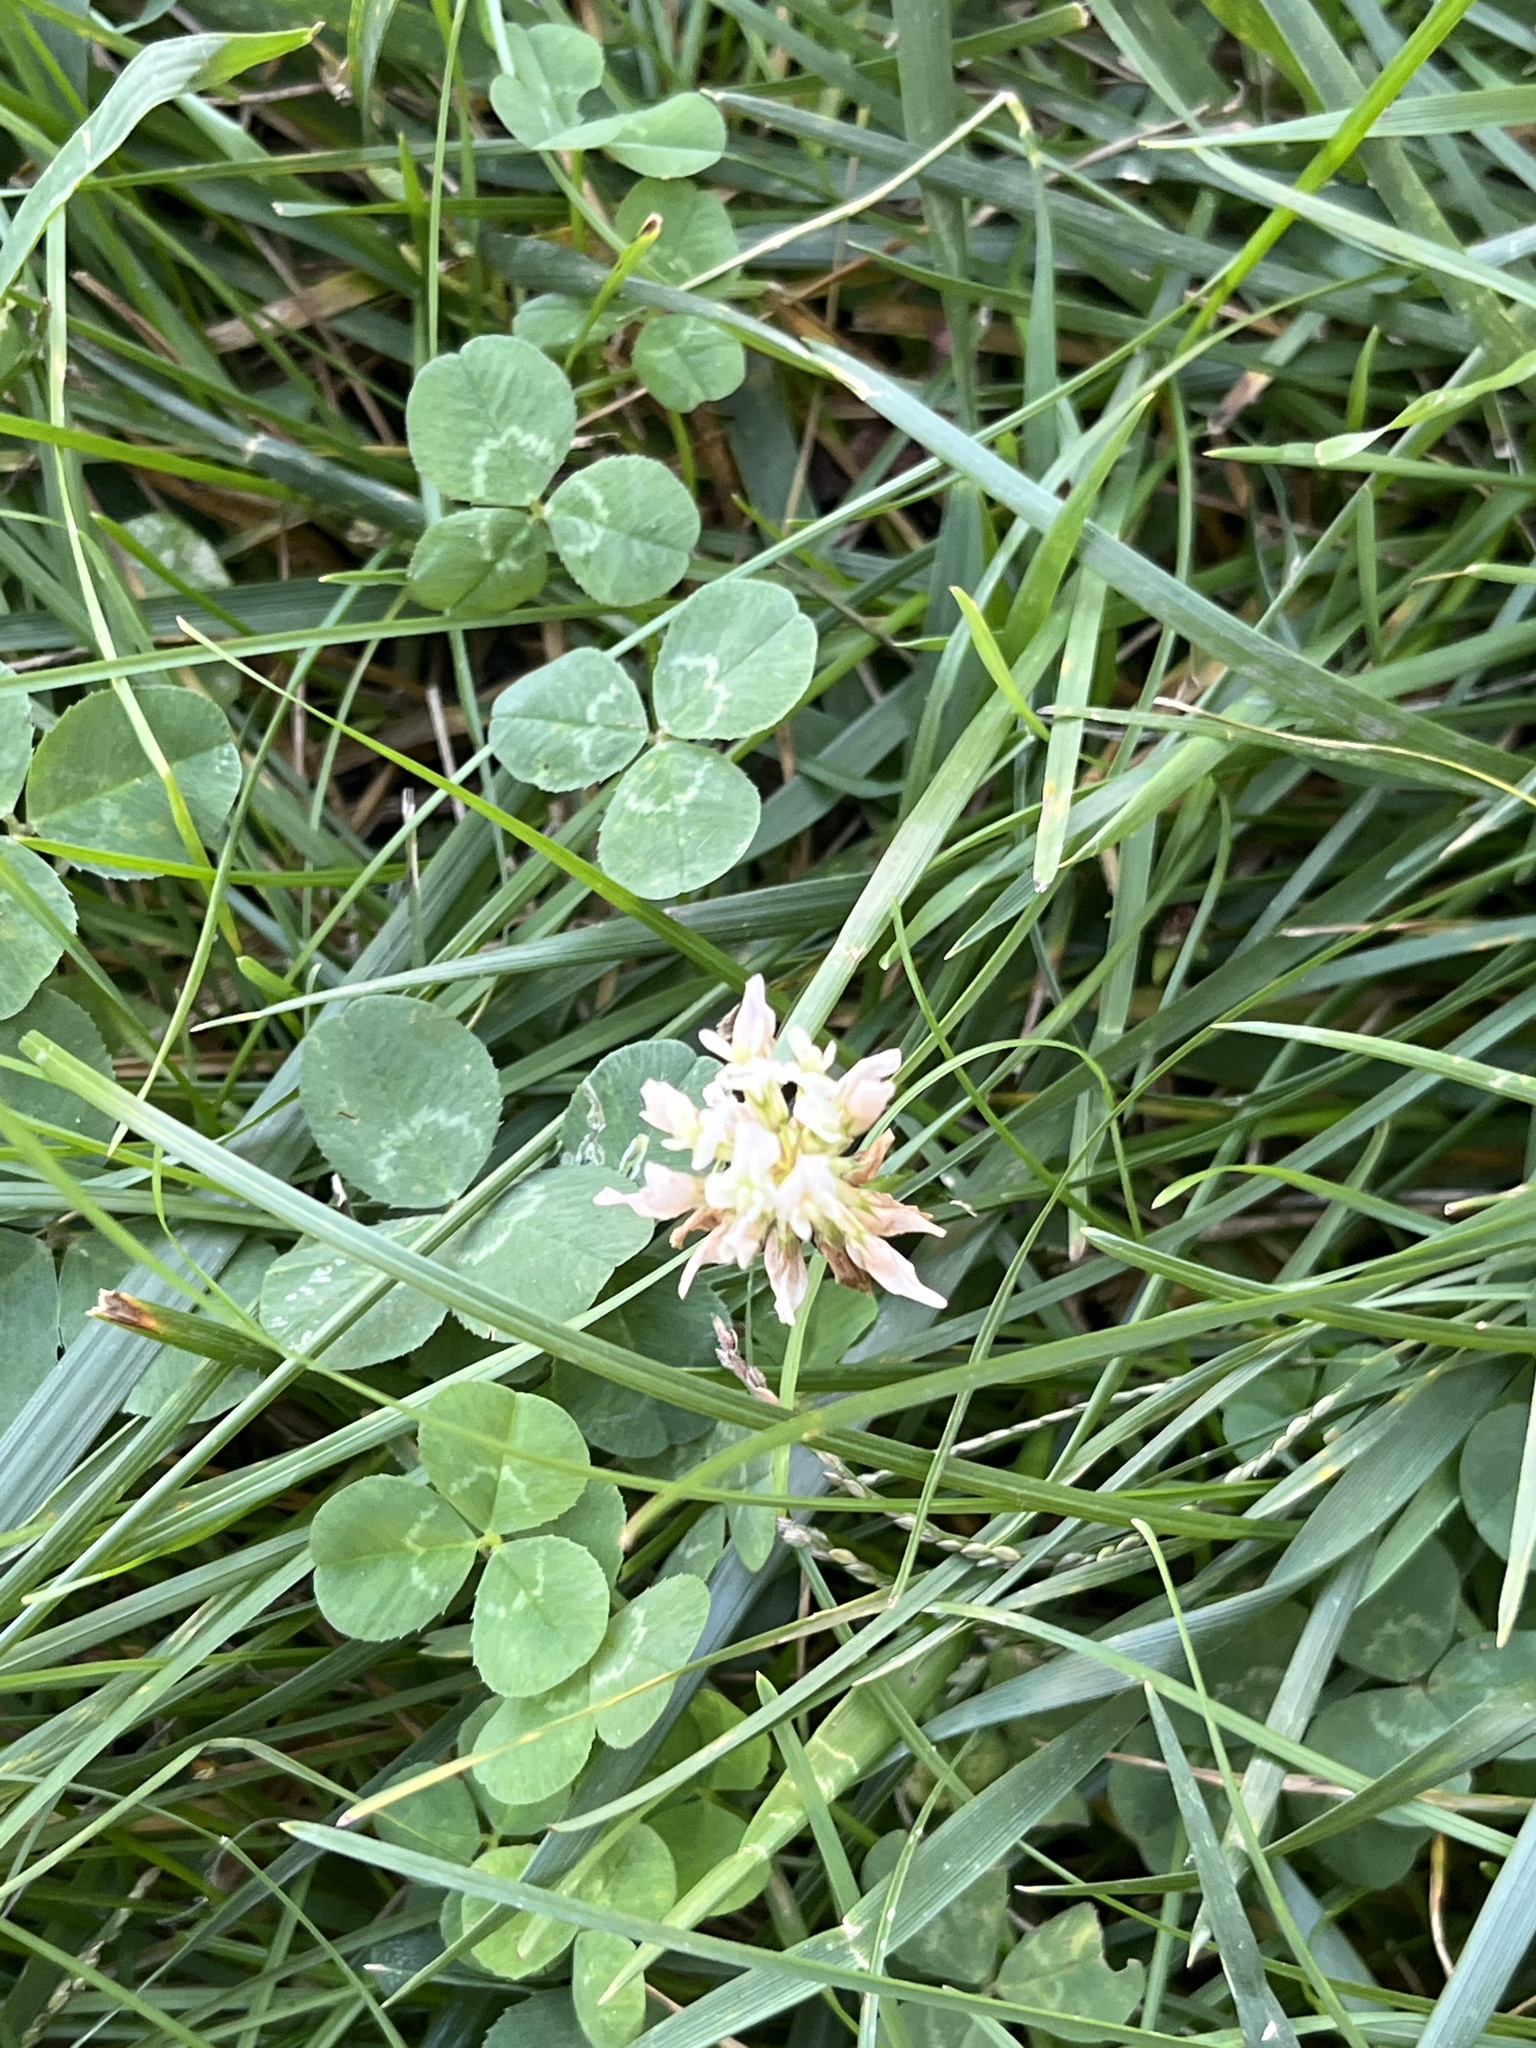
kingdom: Plantae
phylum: Tracheophyta
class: Magnoliopsida
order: Fabales
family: Fabaceae
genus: Trifolium
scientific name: Trifolium repens
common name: White clover
